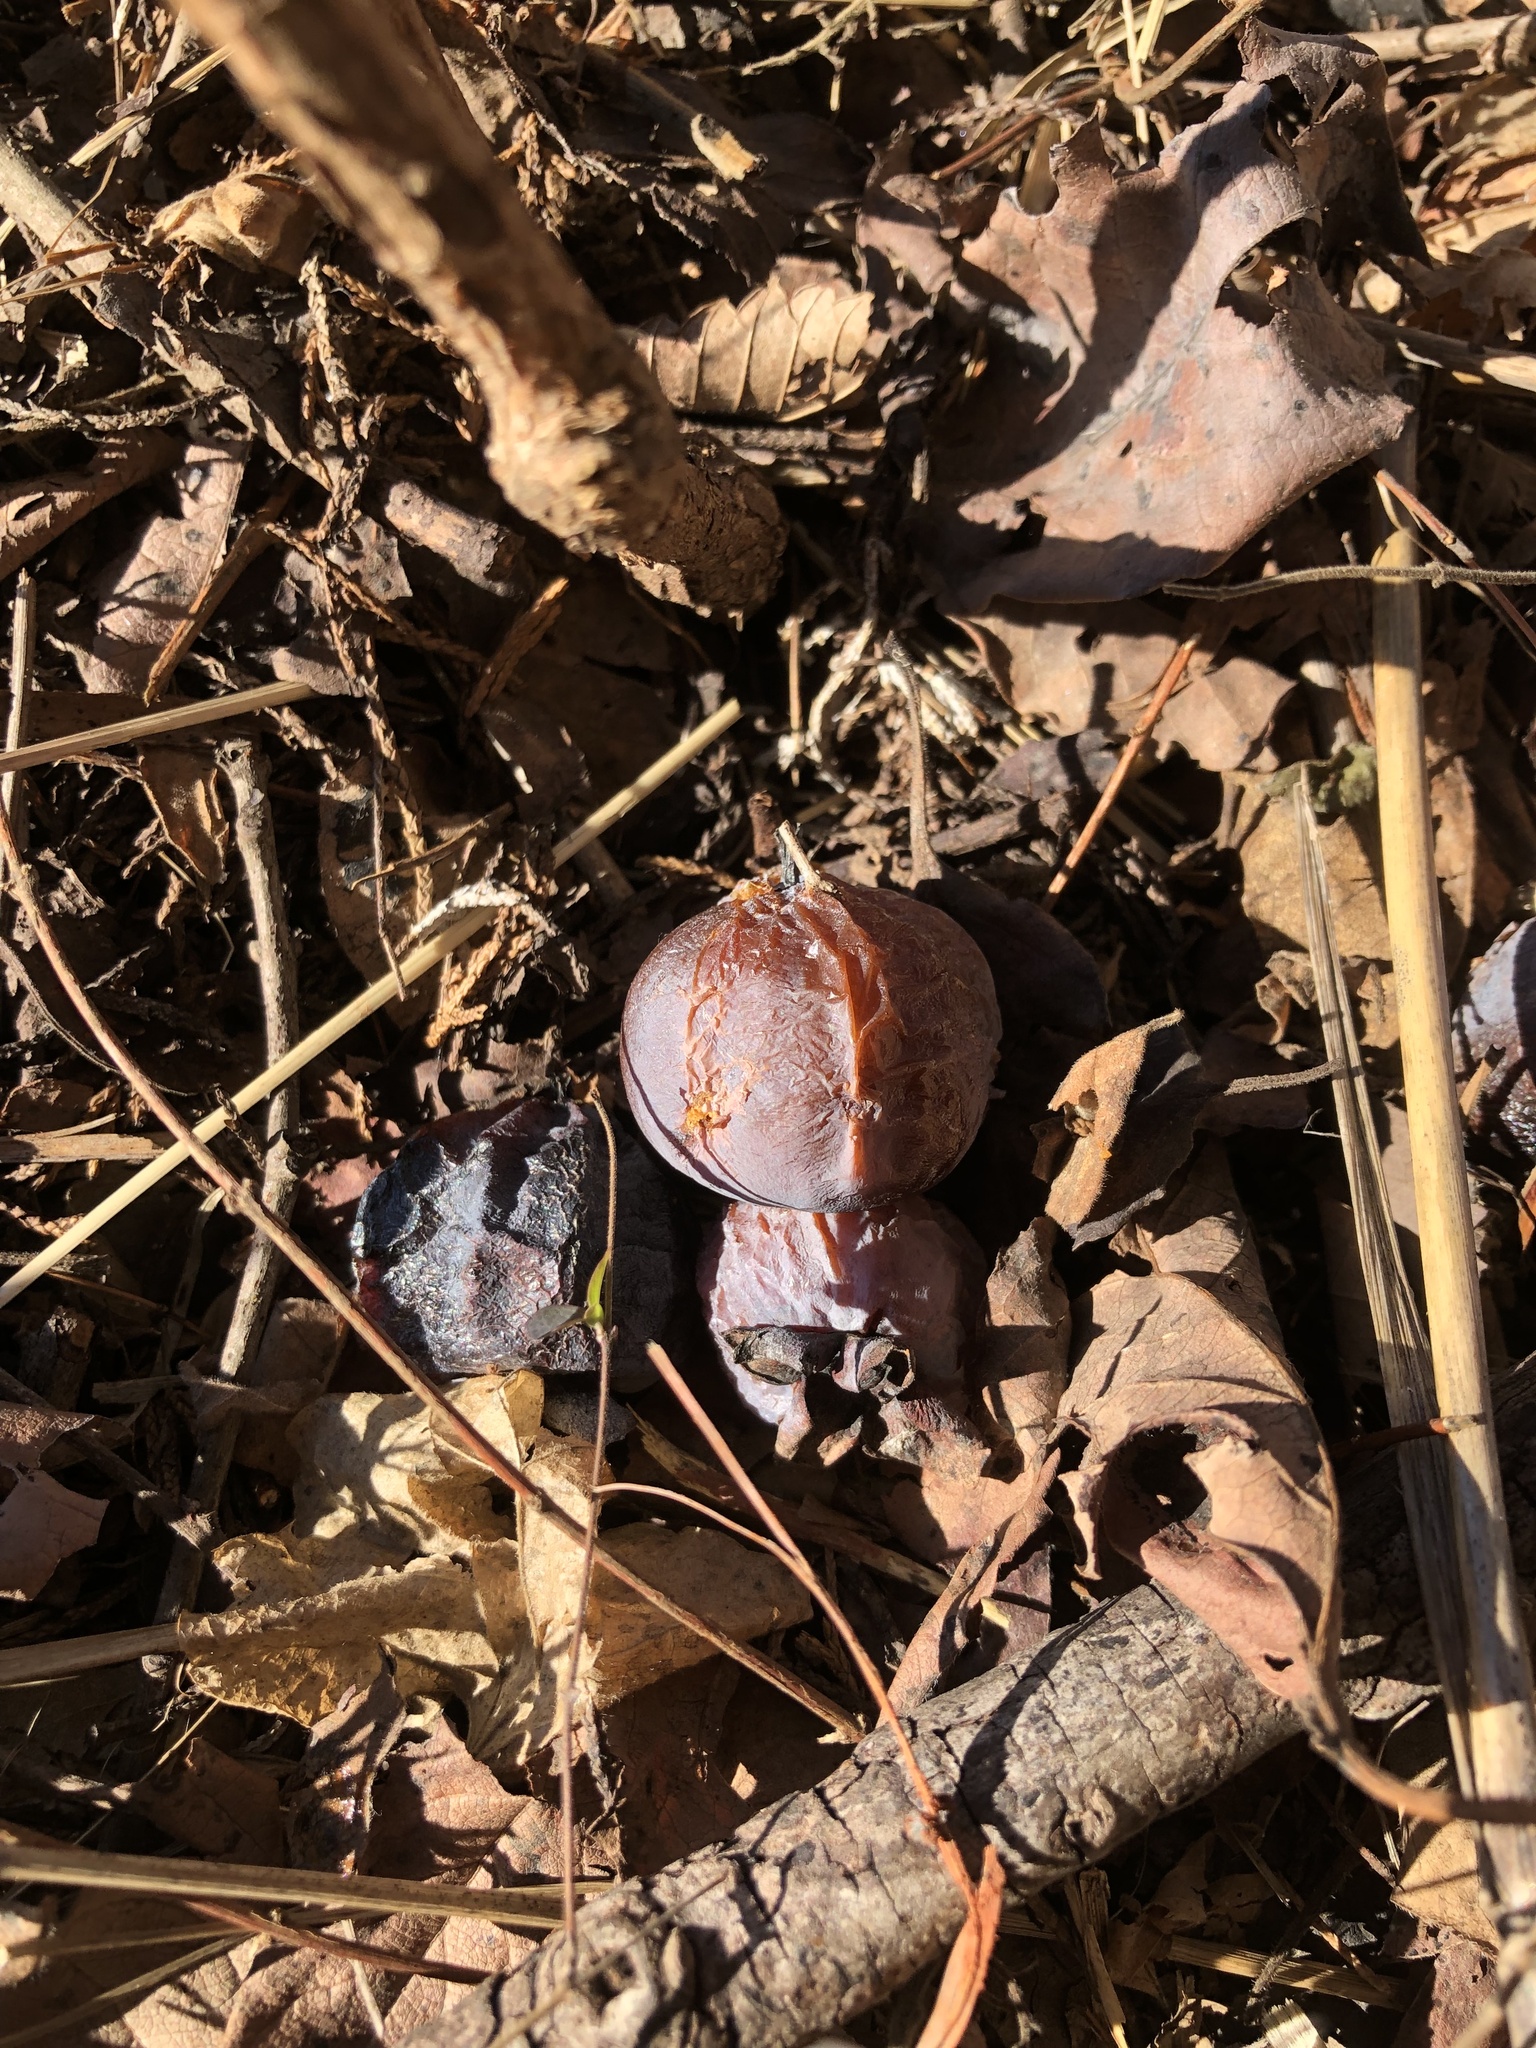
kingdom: Plantae
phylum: Tracheophyta
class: Magnoliopsida
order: Ericales
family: Ebenaceae
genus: Diospyros
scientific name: Diospyros virginiana
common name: Persimmon
